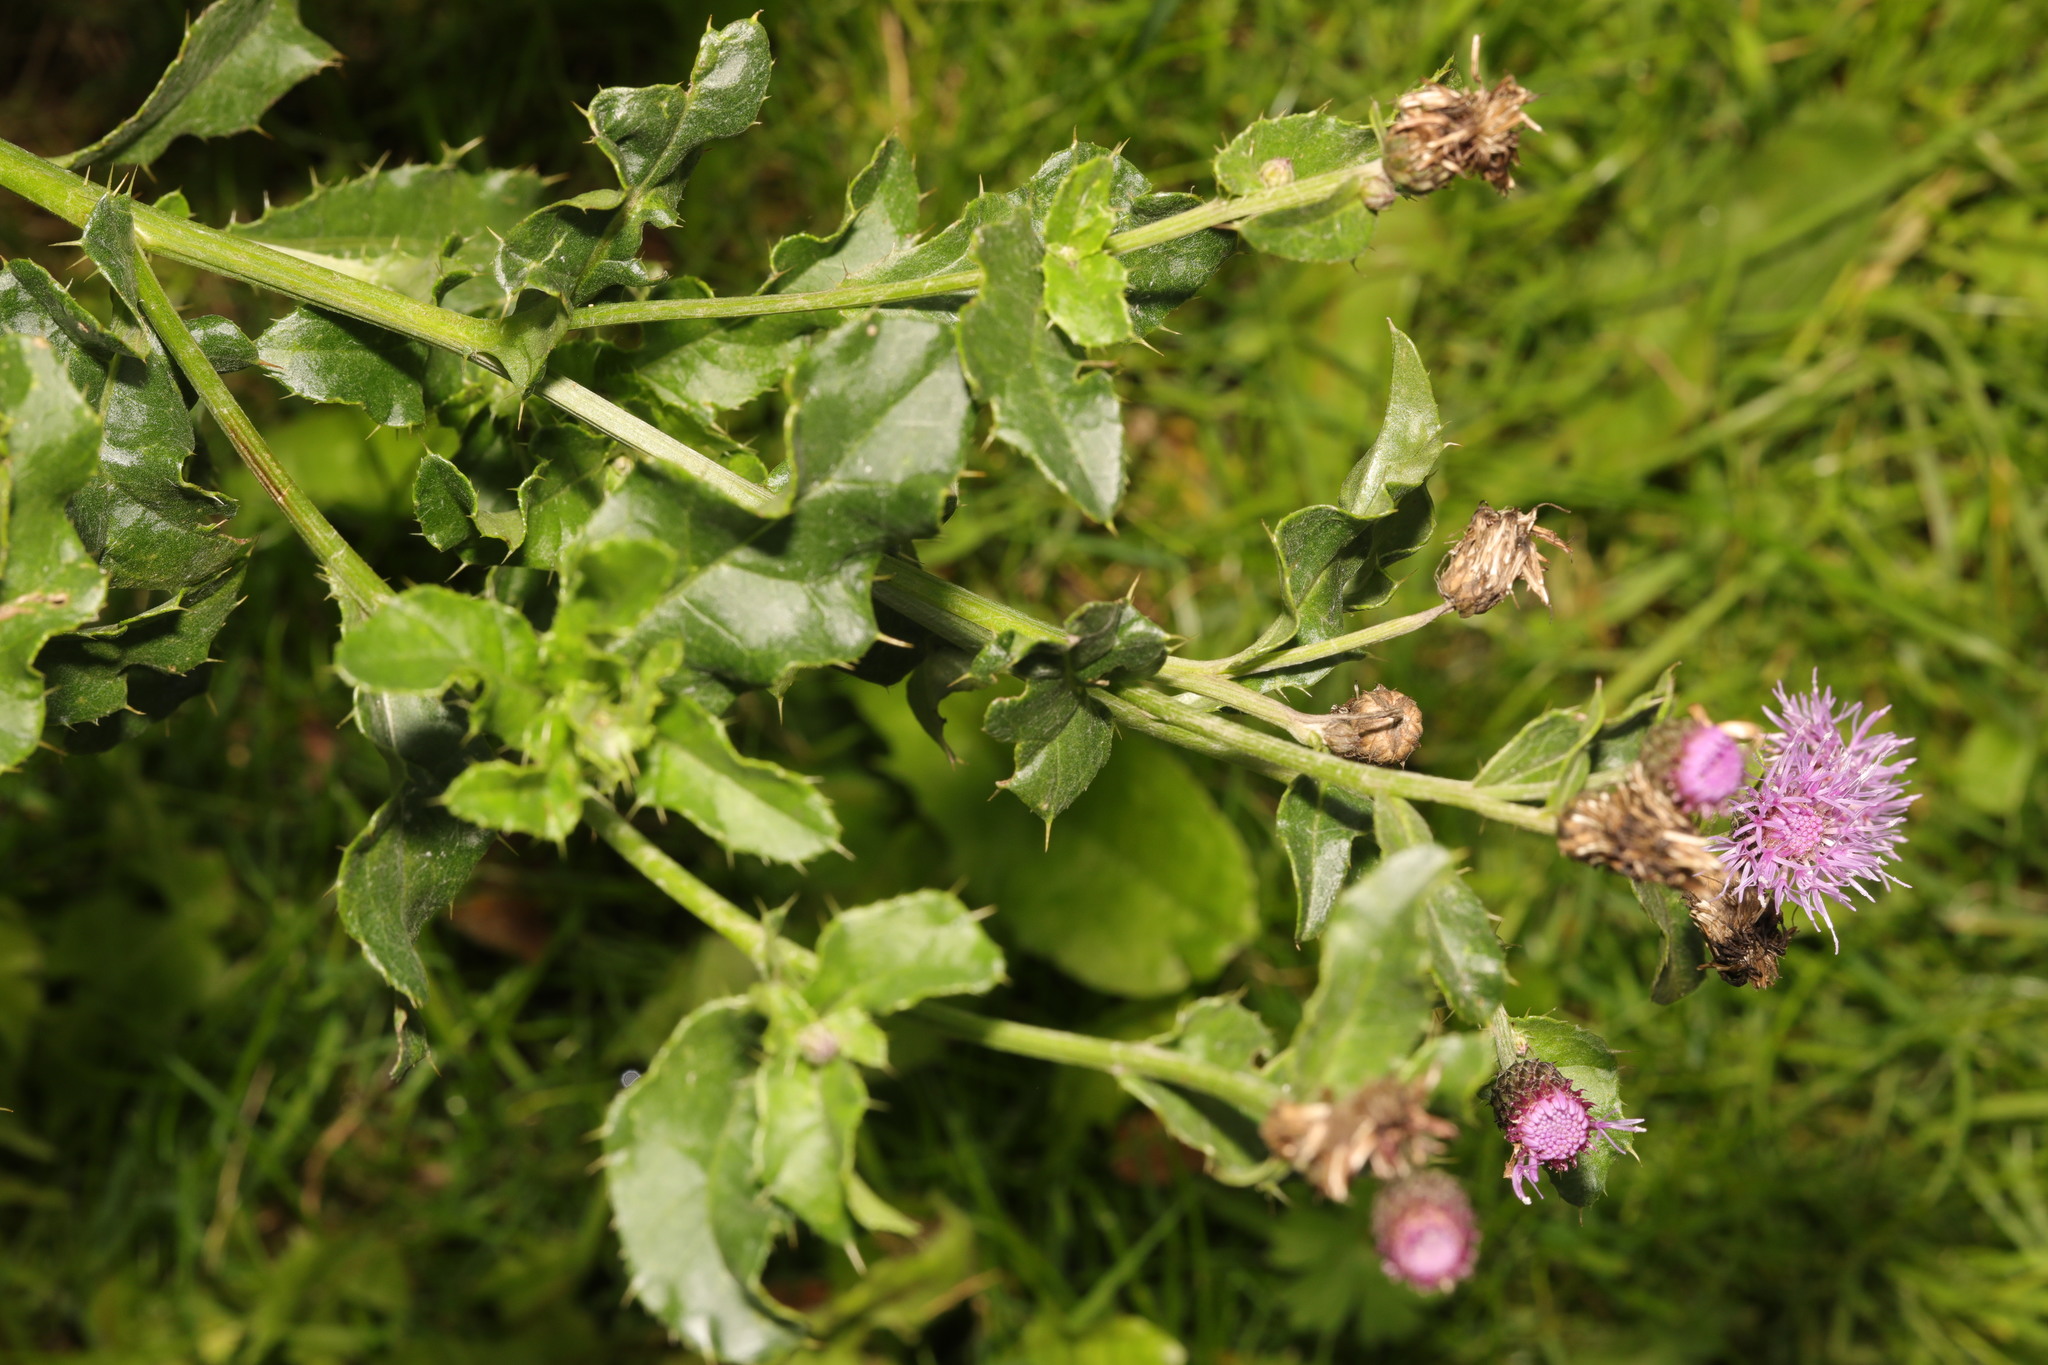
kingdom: Plantae
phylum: Tracheophyta
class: Magnoliopsida
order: Asterales
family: Asteraceae
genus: Cirsium
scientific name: Cirsium arvense
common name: Creeping thistle
